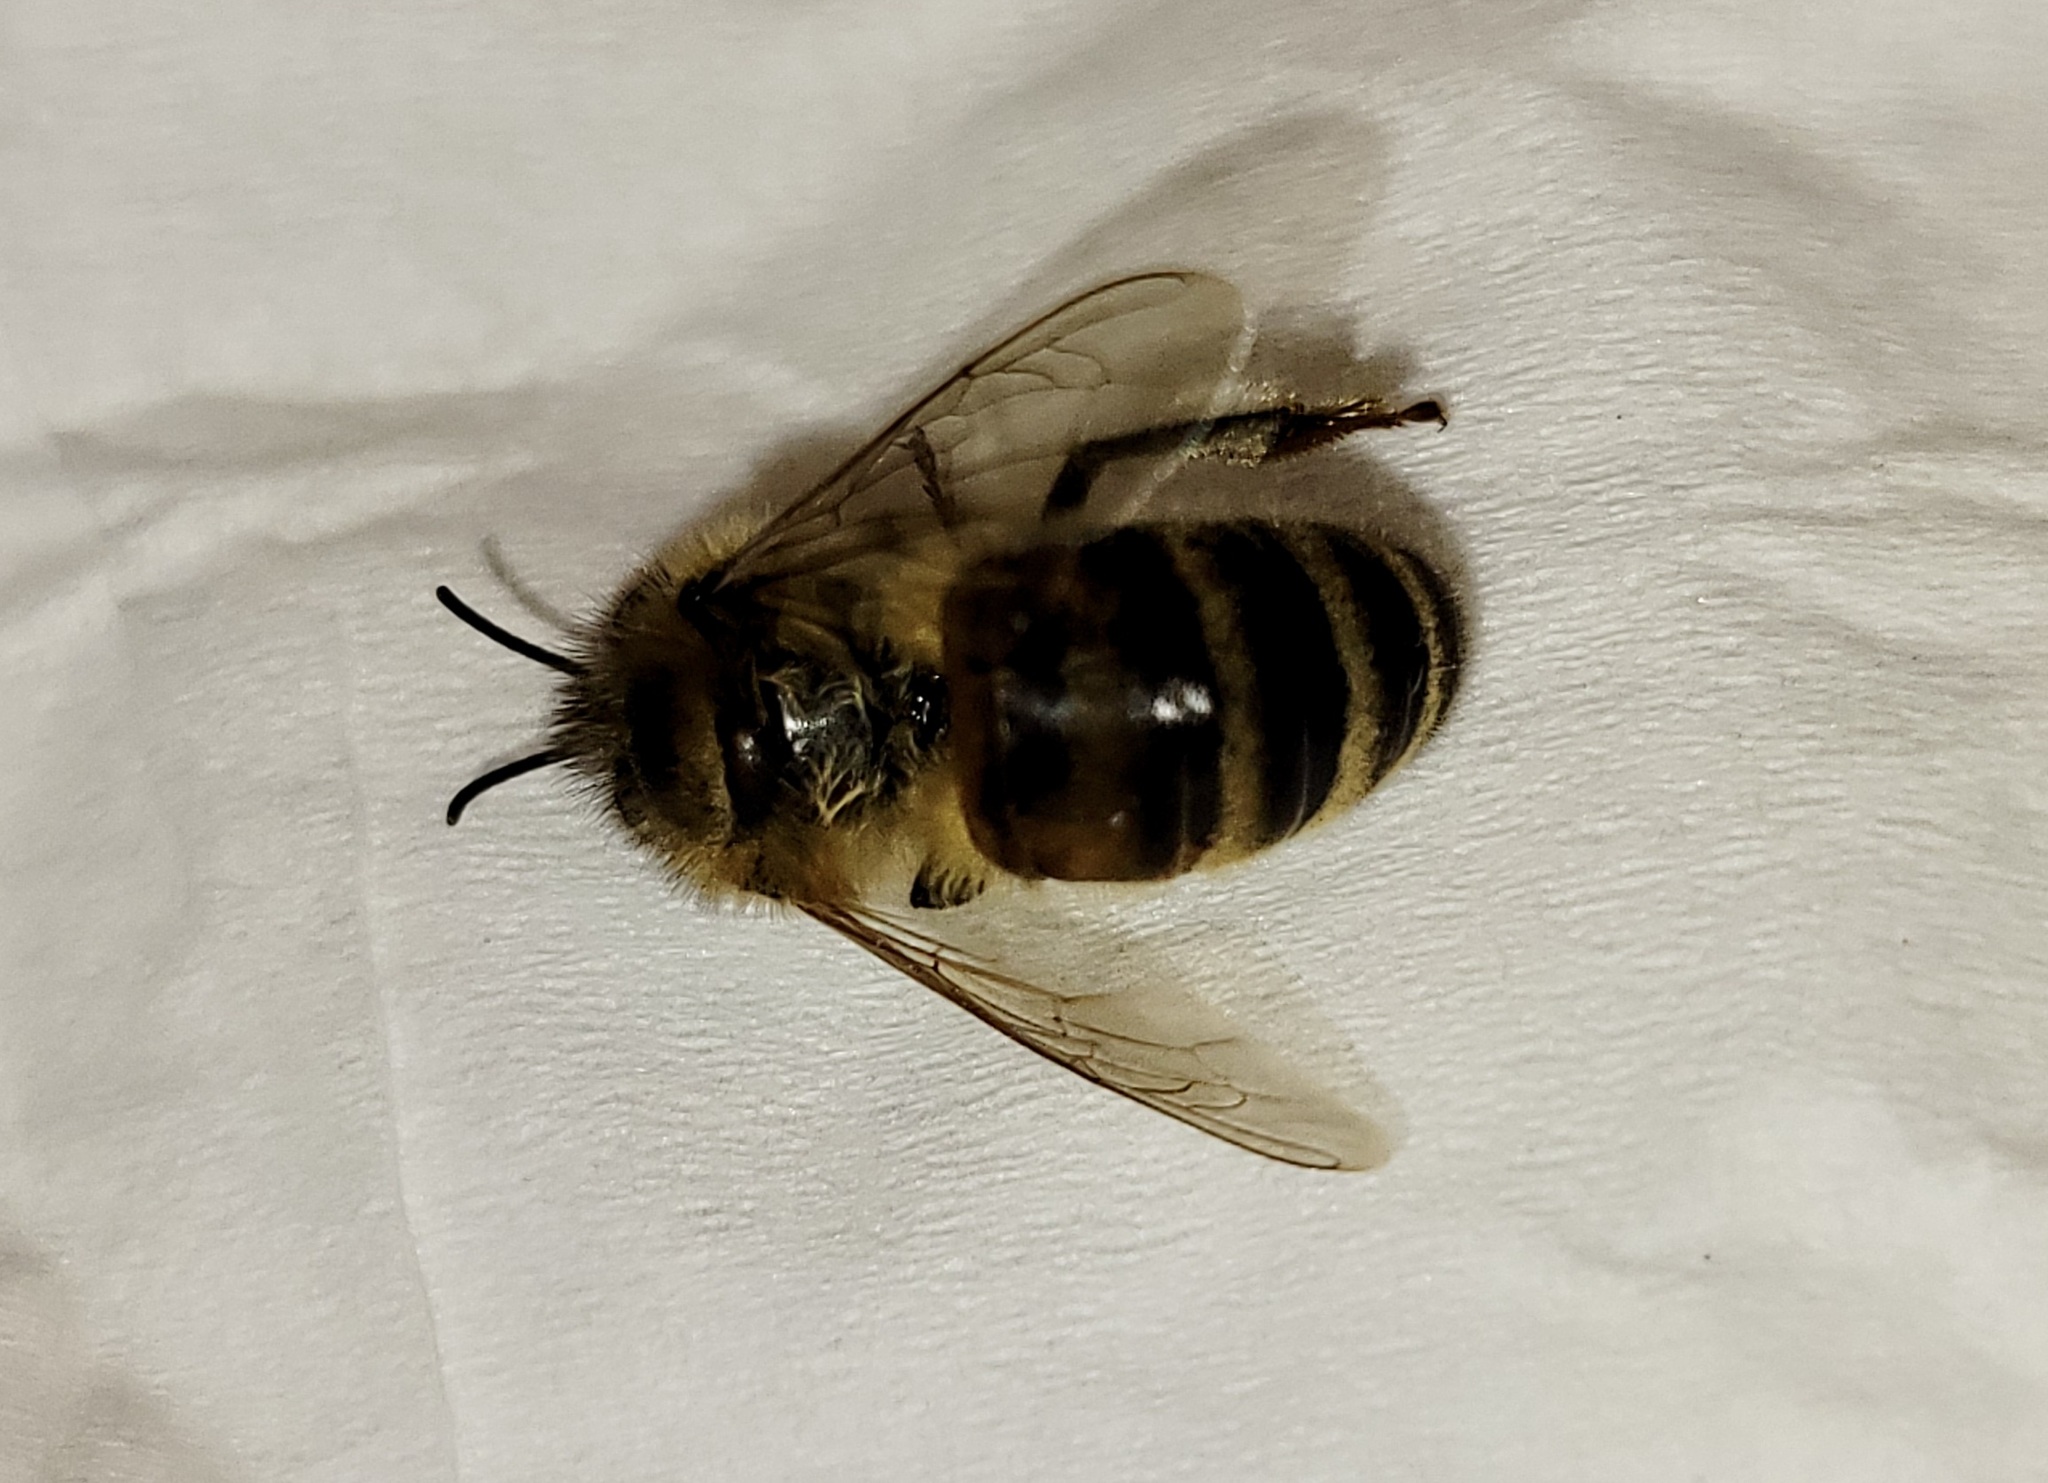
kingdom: Animalia
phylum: Arthropoda
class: Insecta
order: Hymenoptera
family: Apidae
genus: Apis
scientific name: Apis mellifera
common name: Honey bee
